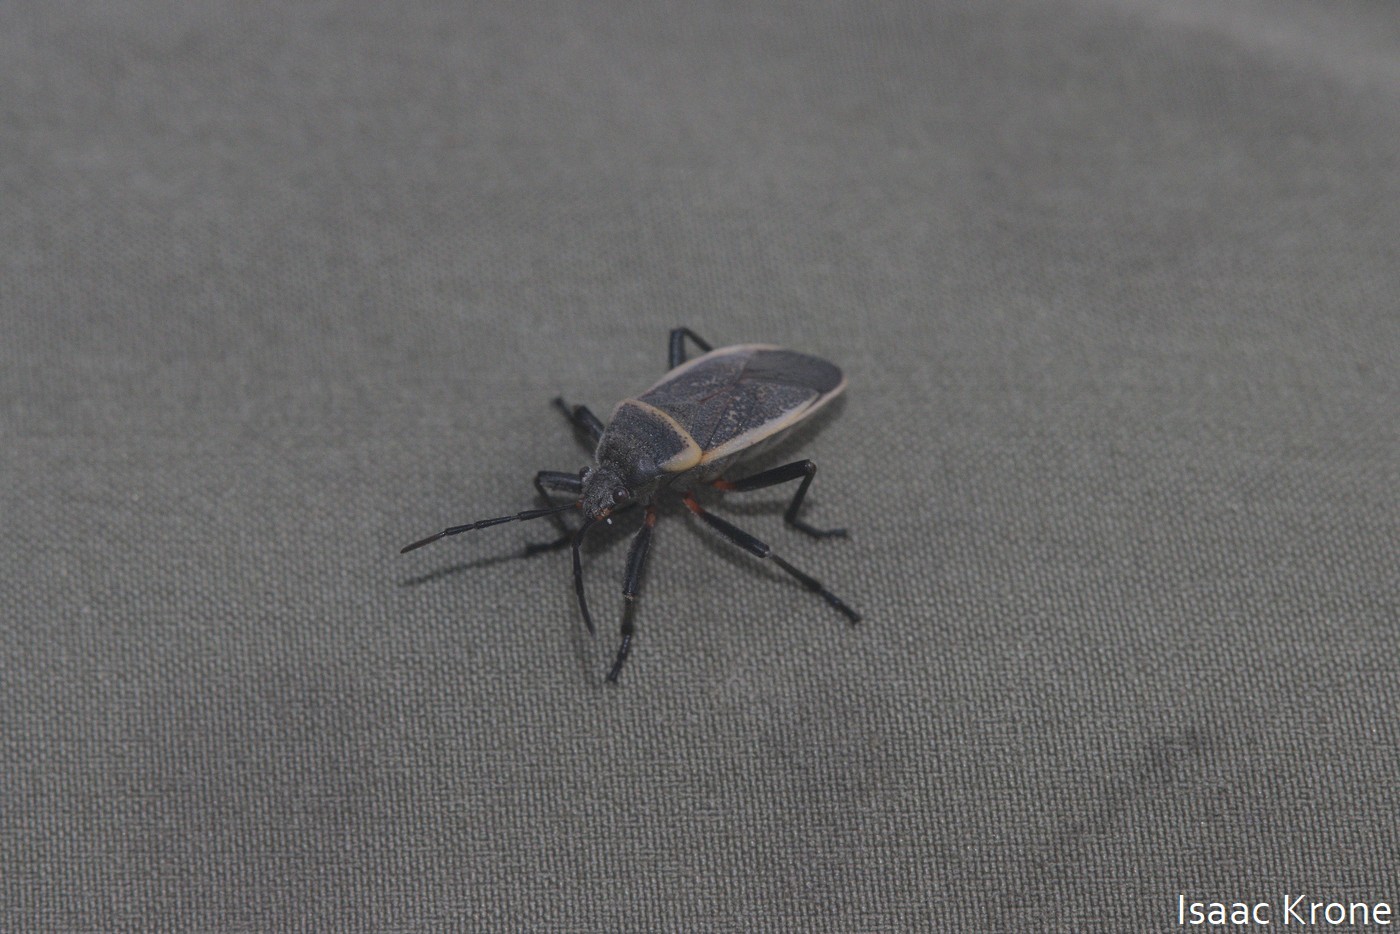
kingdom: Animalia
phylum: Arthropoda
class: Insecta
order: Hemiptera
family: Largidae
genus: Largus
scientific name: Largus californicus
